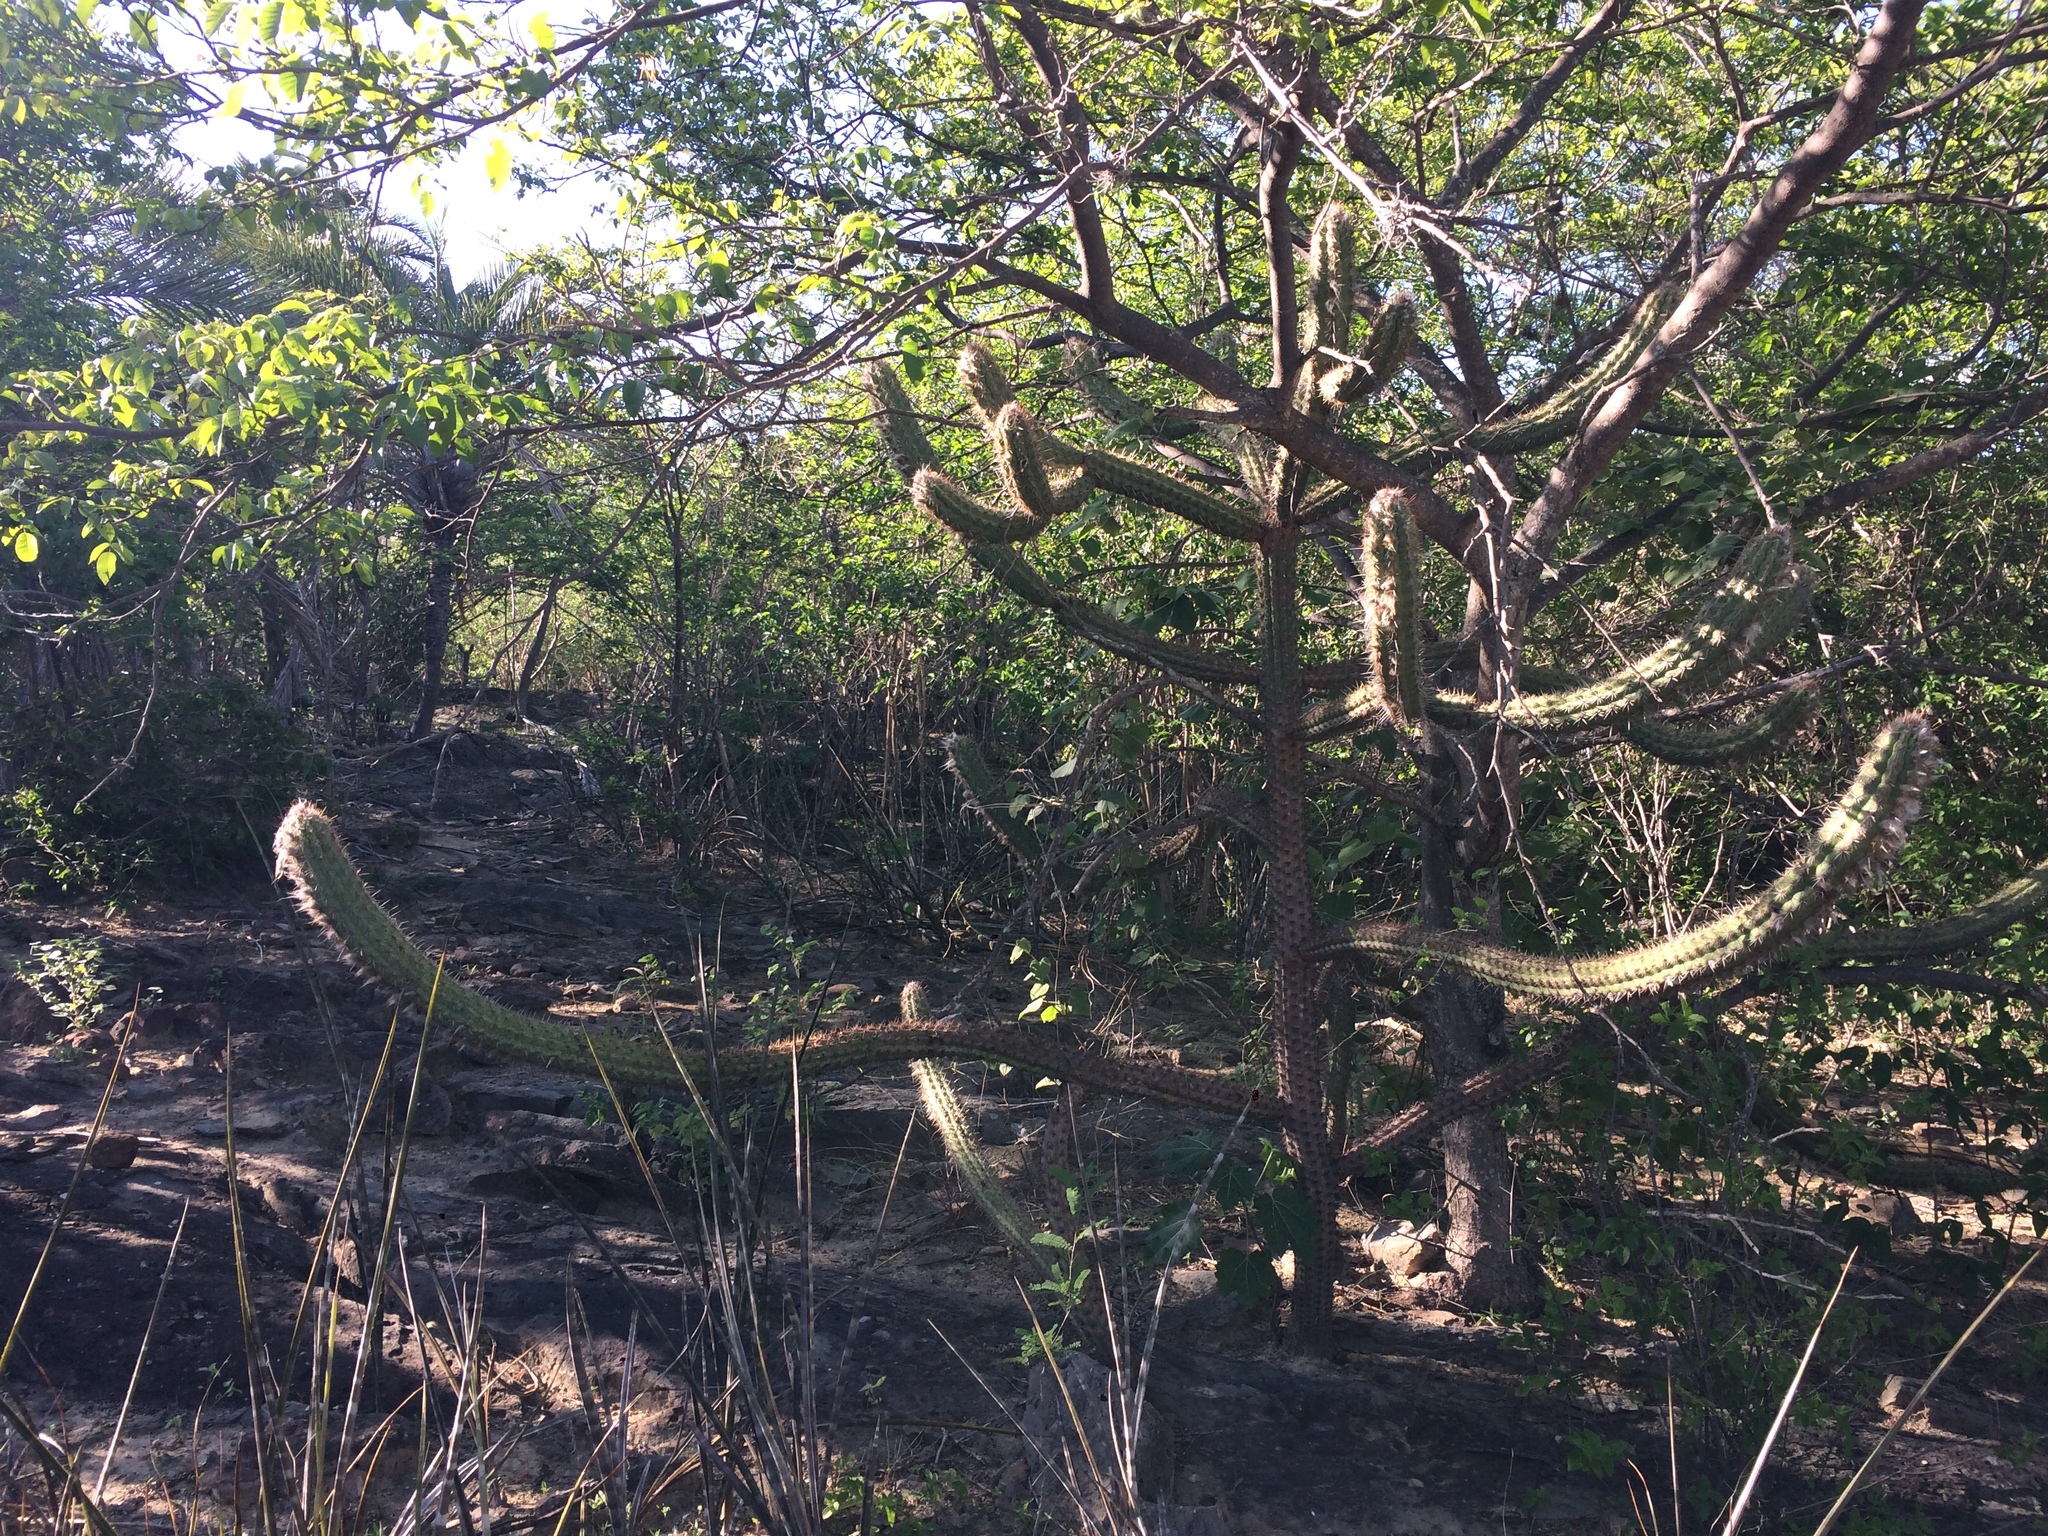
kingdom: Plantae
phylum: Tracheophyta
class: Magnoliopsida
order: Caryophyllales
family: Cactaceae
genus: Xiquexique
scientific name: Xiquexique gounellei
